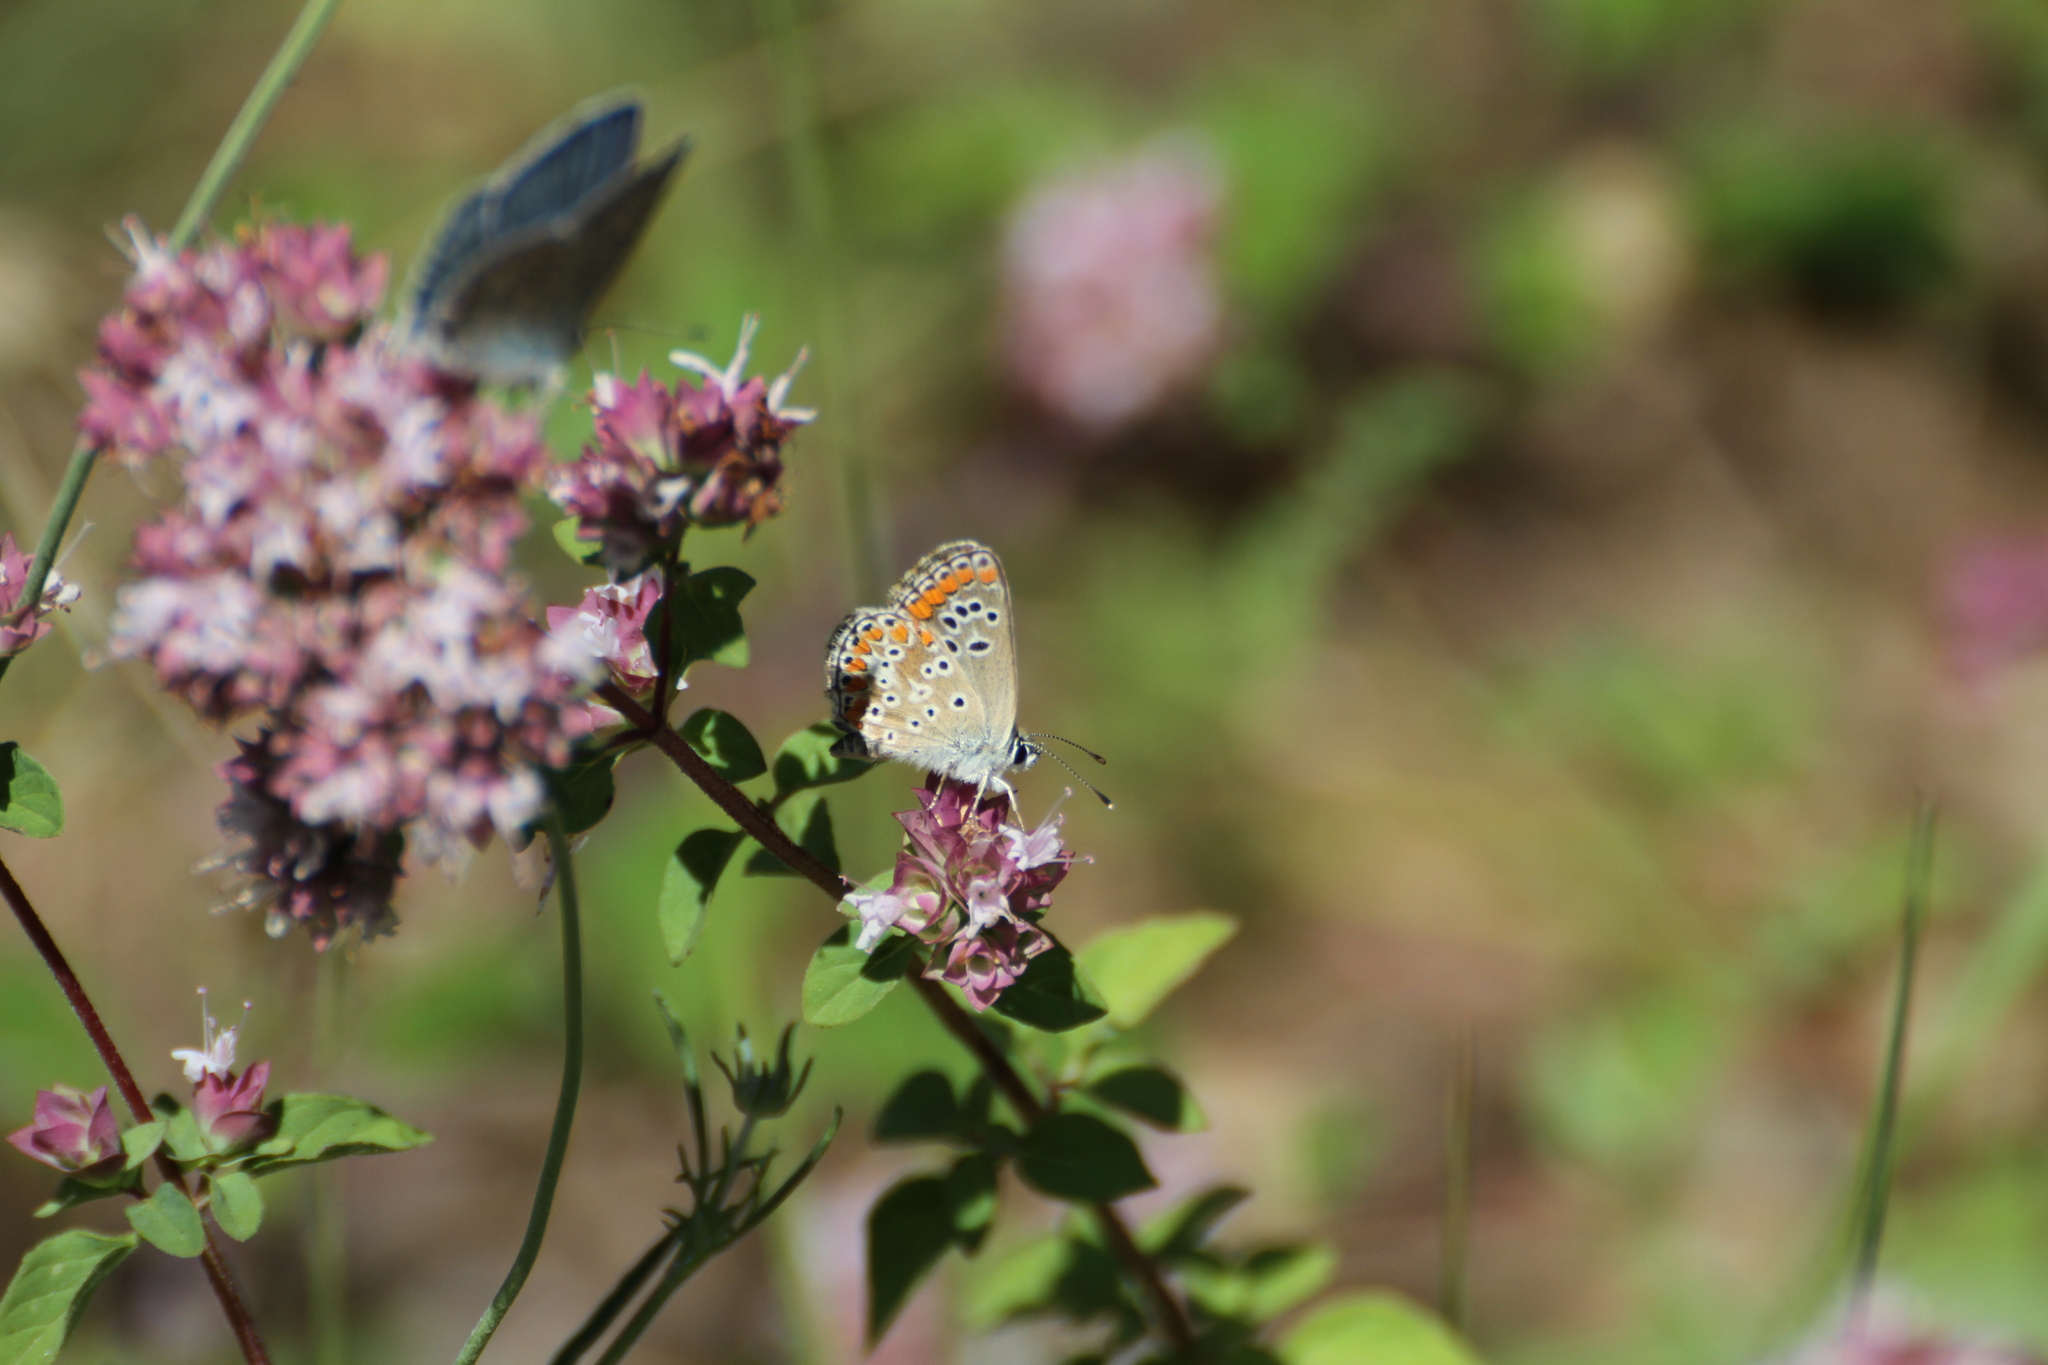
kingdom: Animalia
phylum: Arthropoda
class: Insecta
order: Lepidoptera
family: Lycaenidae
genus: Aricia
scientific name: Aricia agestis
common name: Brown argus
